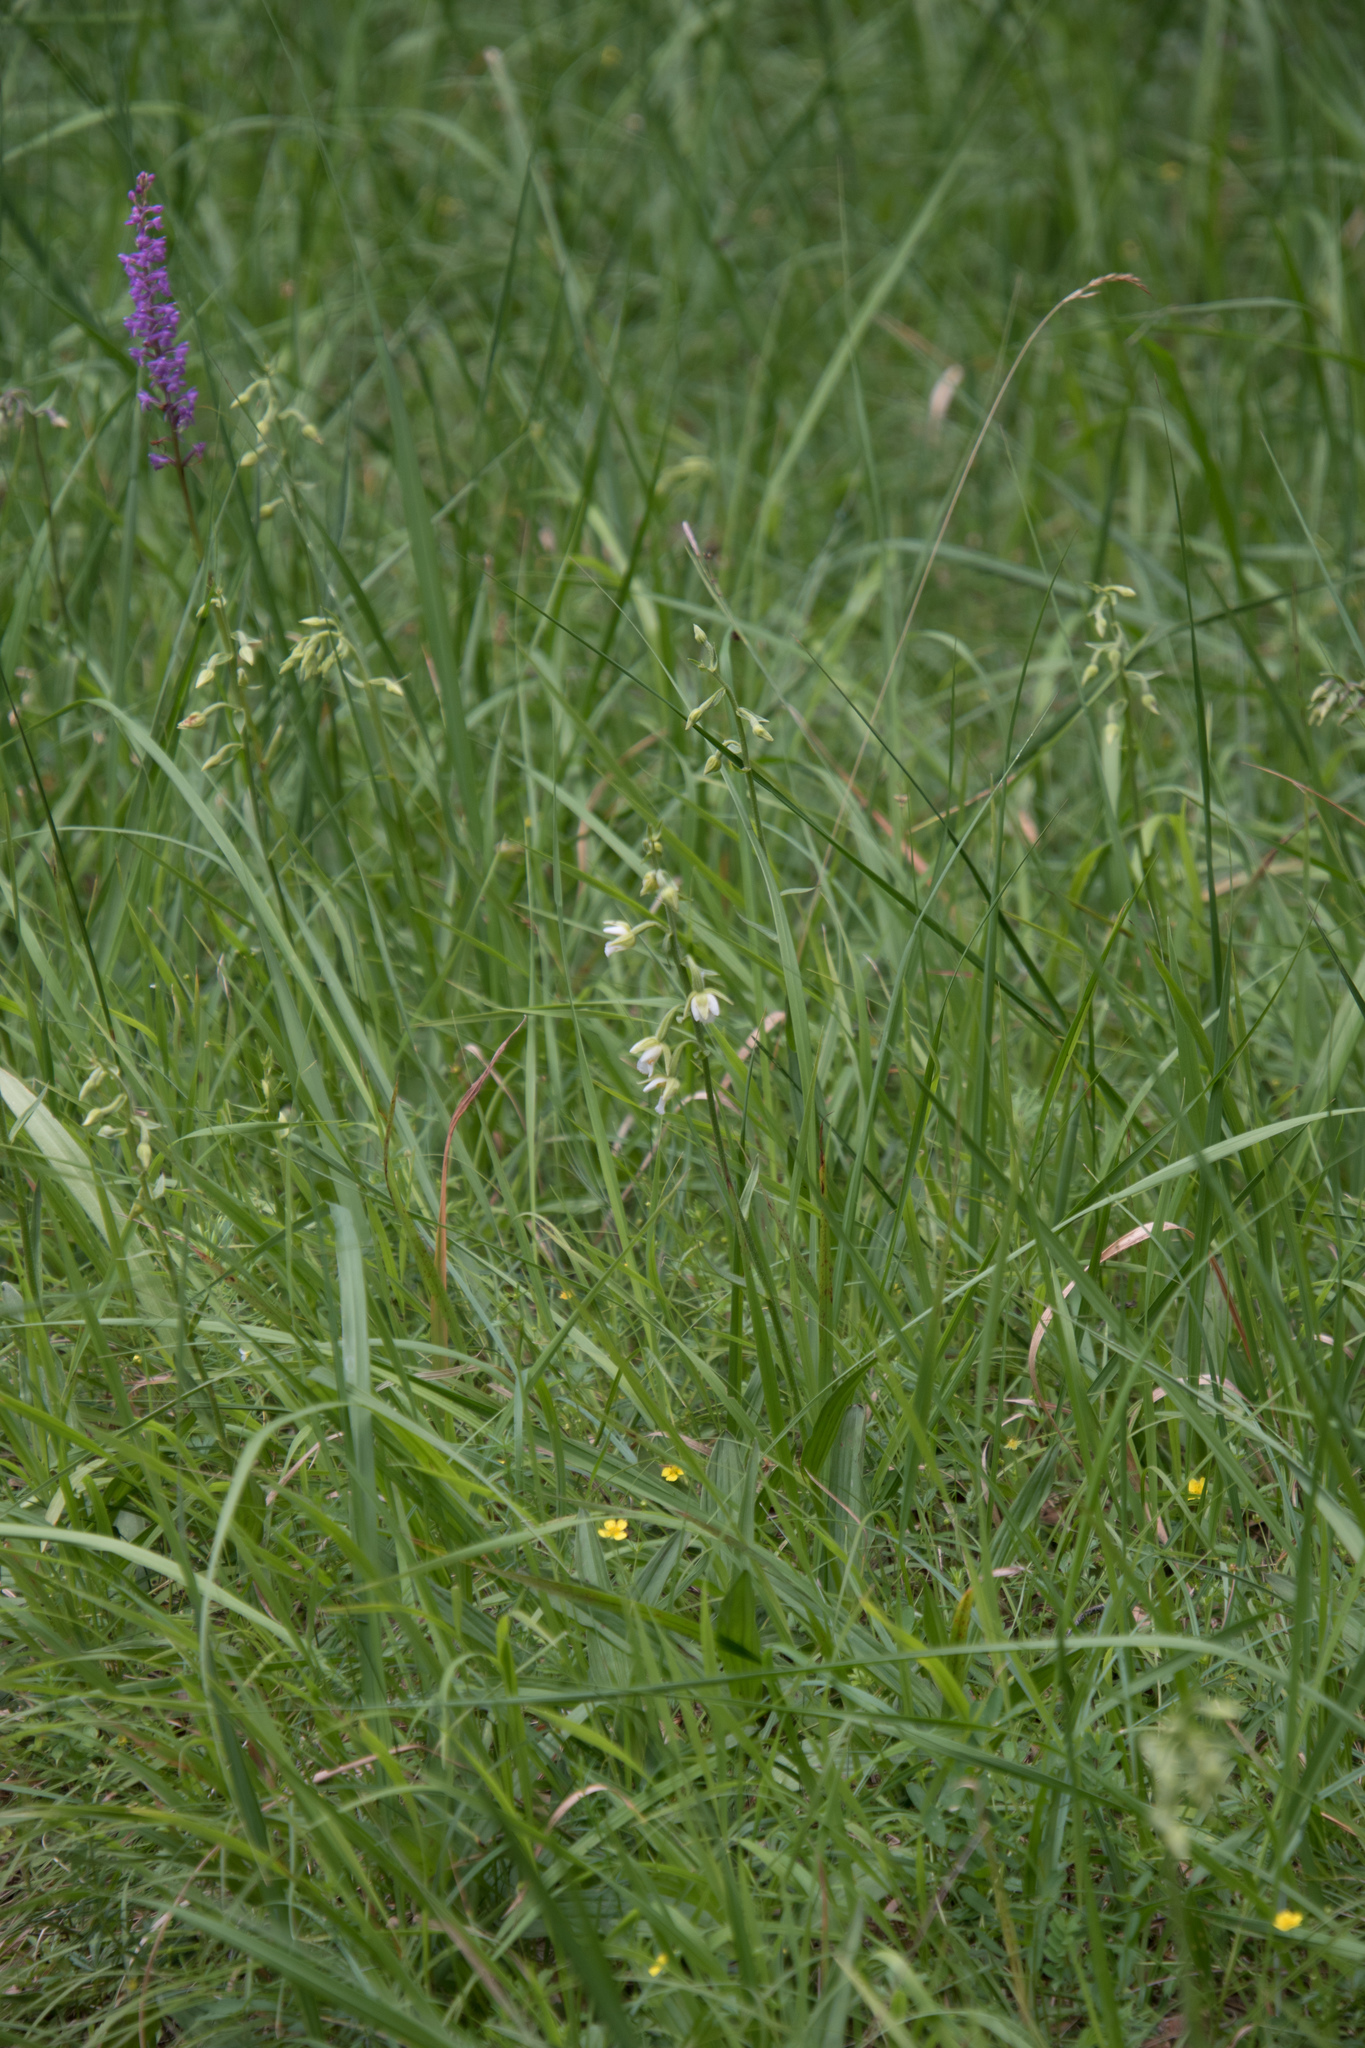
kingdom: Plantae
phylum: Tracheophyta
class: Liliopsida
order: Asparagales
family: Orchidaceae
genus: Epipactis
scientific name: Epipactis palustris
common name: Marsh helleborine
